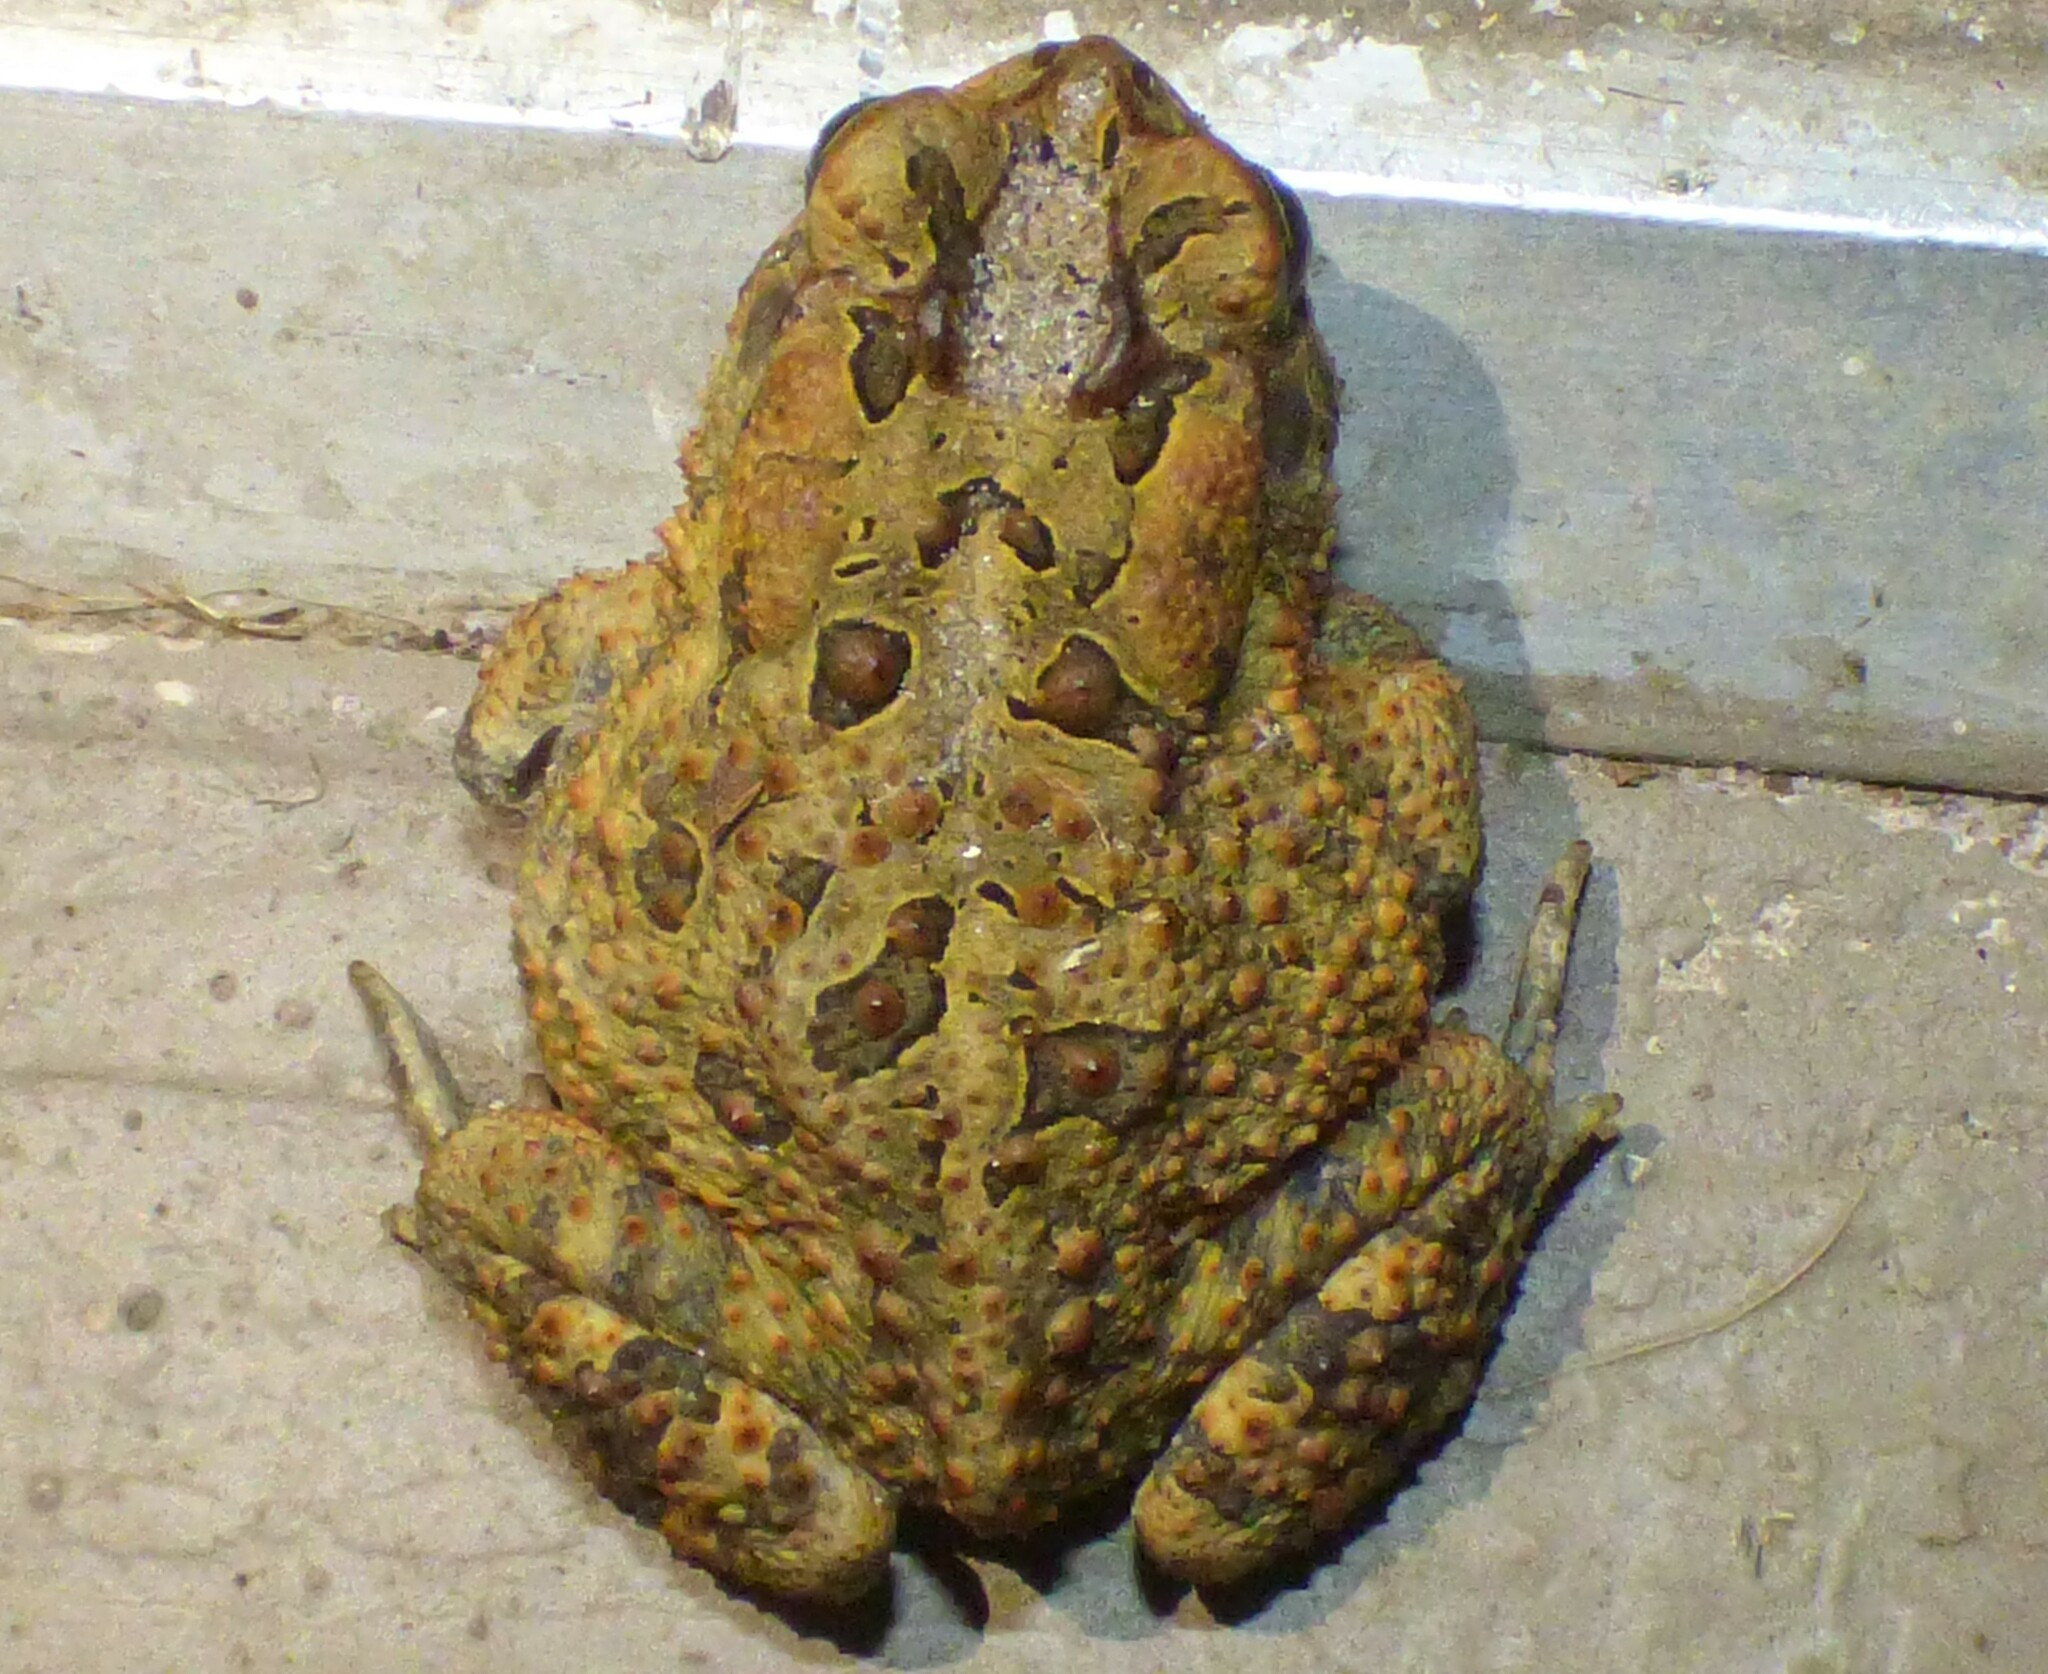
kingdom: Animalia
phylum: Chordata
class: Amphibia
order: Anura
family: Bufonidae
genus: Anaxyrus
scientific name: Anaxyrus terrestris
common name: Southern toad
